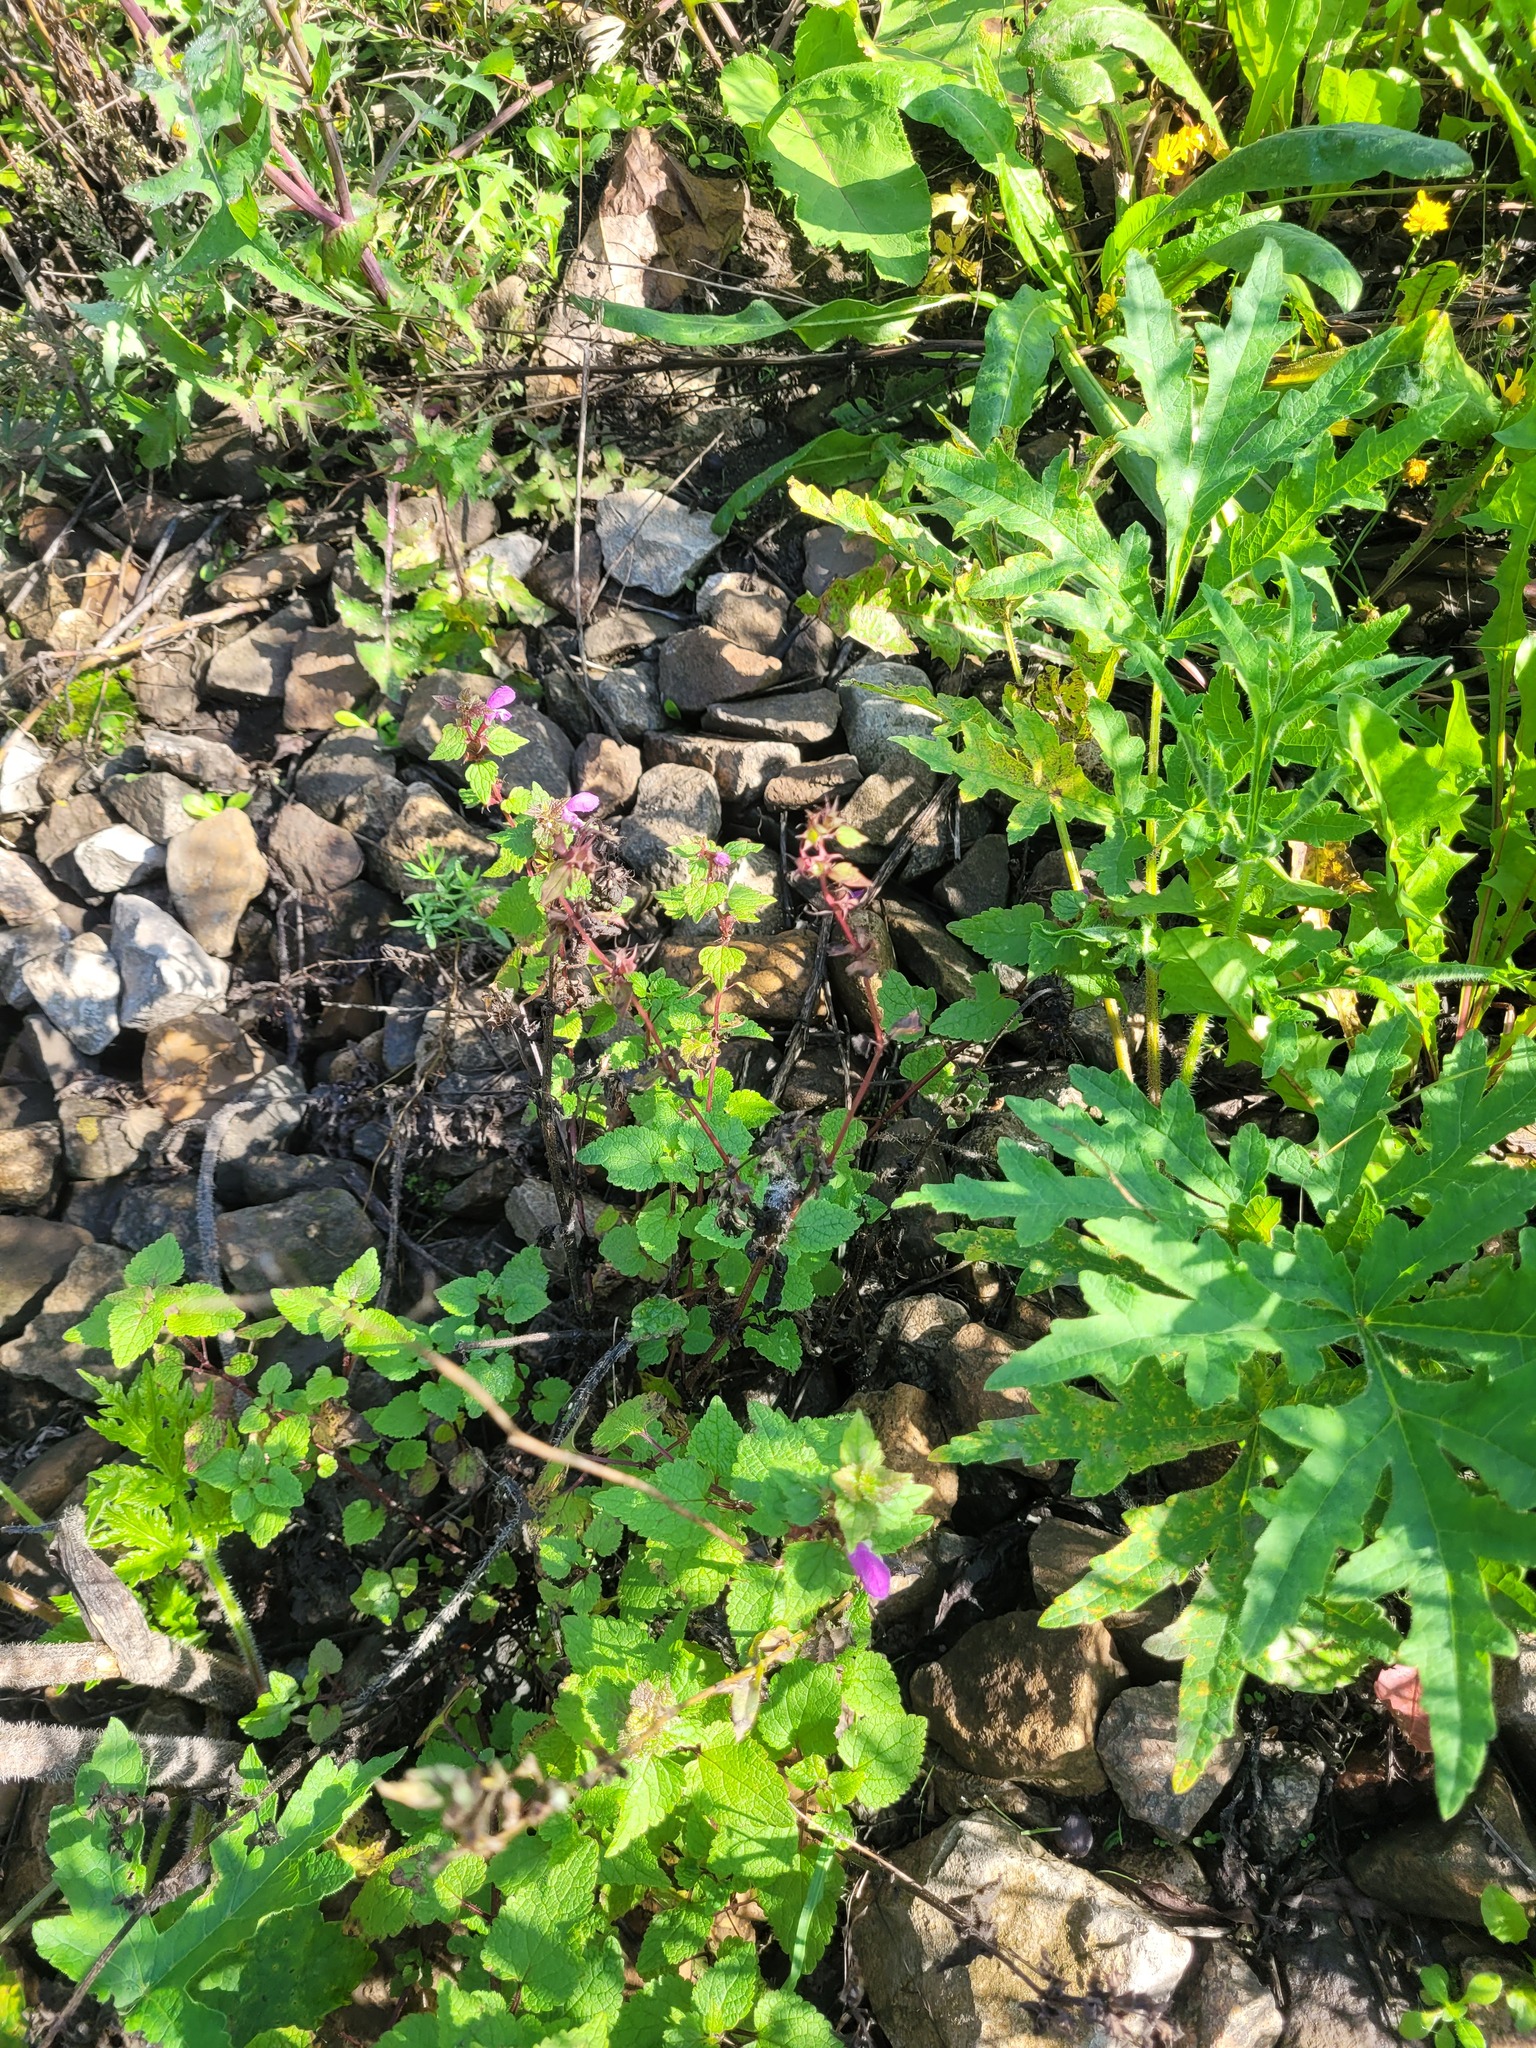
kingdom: Plantae
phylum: Tracheophyta
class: Magnoliopsida
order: Lamiales
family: Lamiaceae
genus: Lamium
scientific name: Lamium maculatum
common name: Spotted dead-nettle
